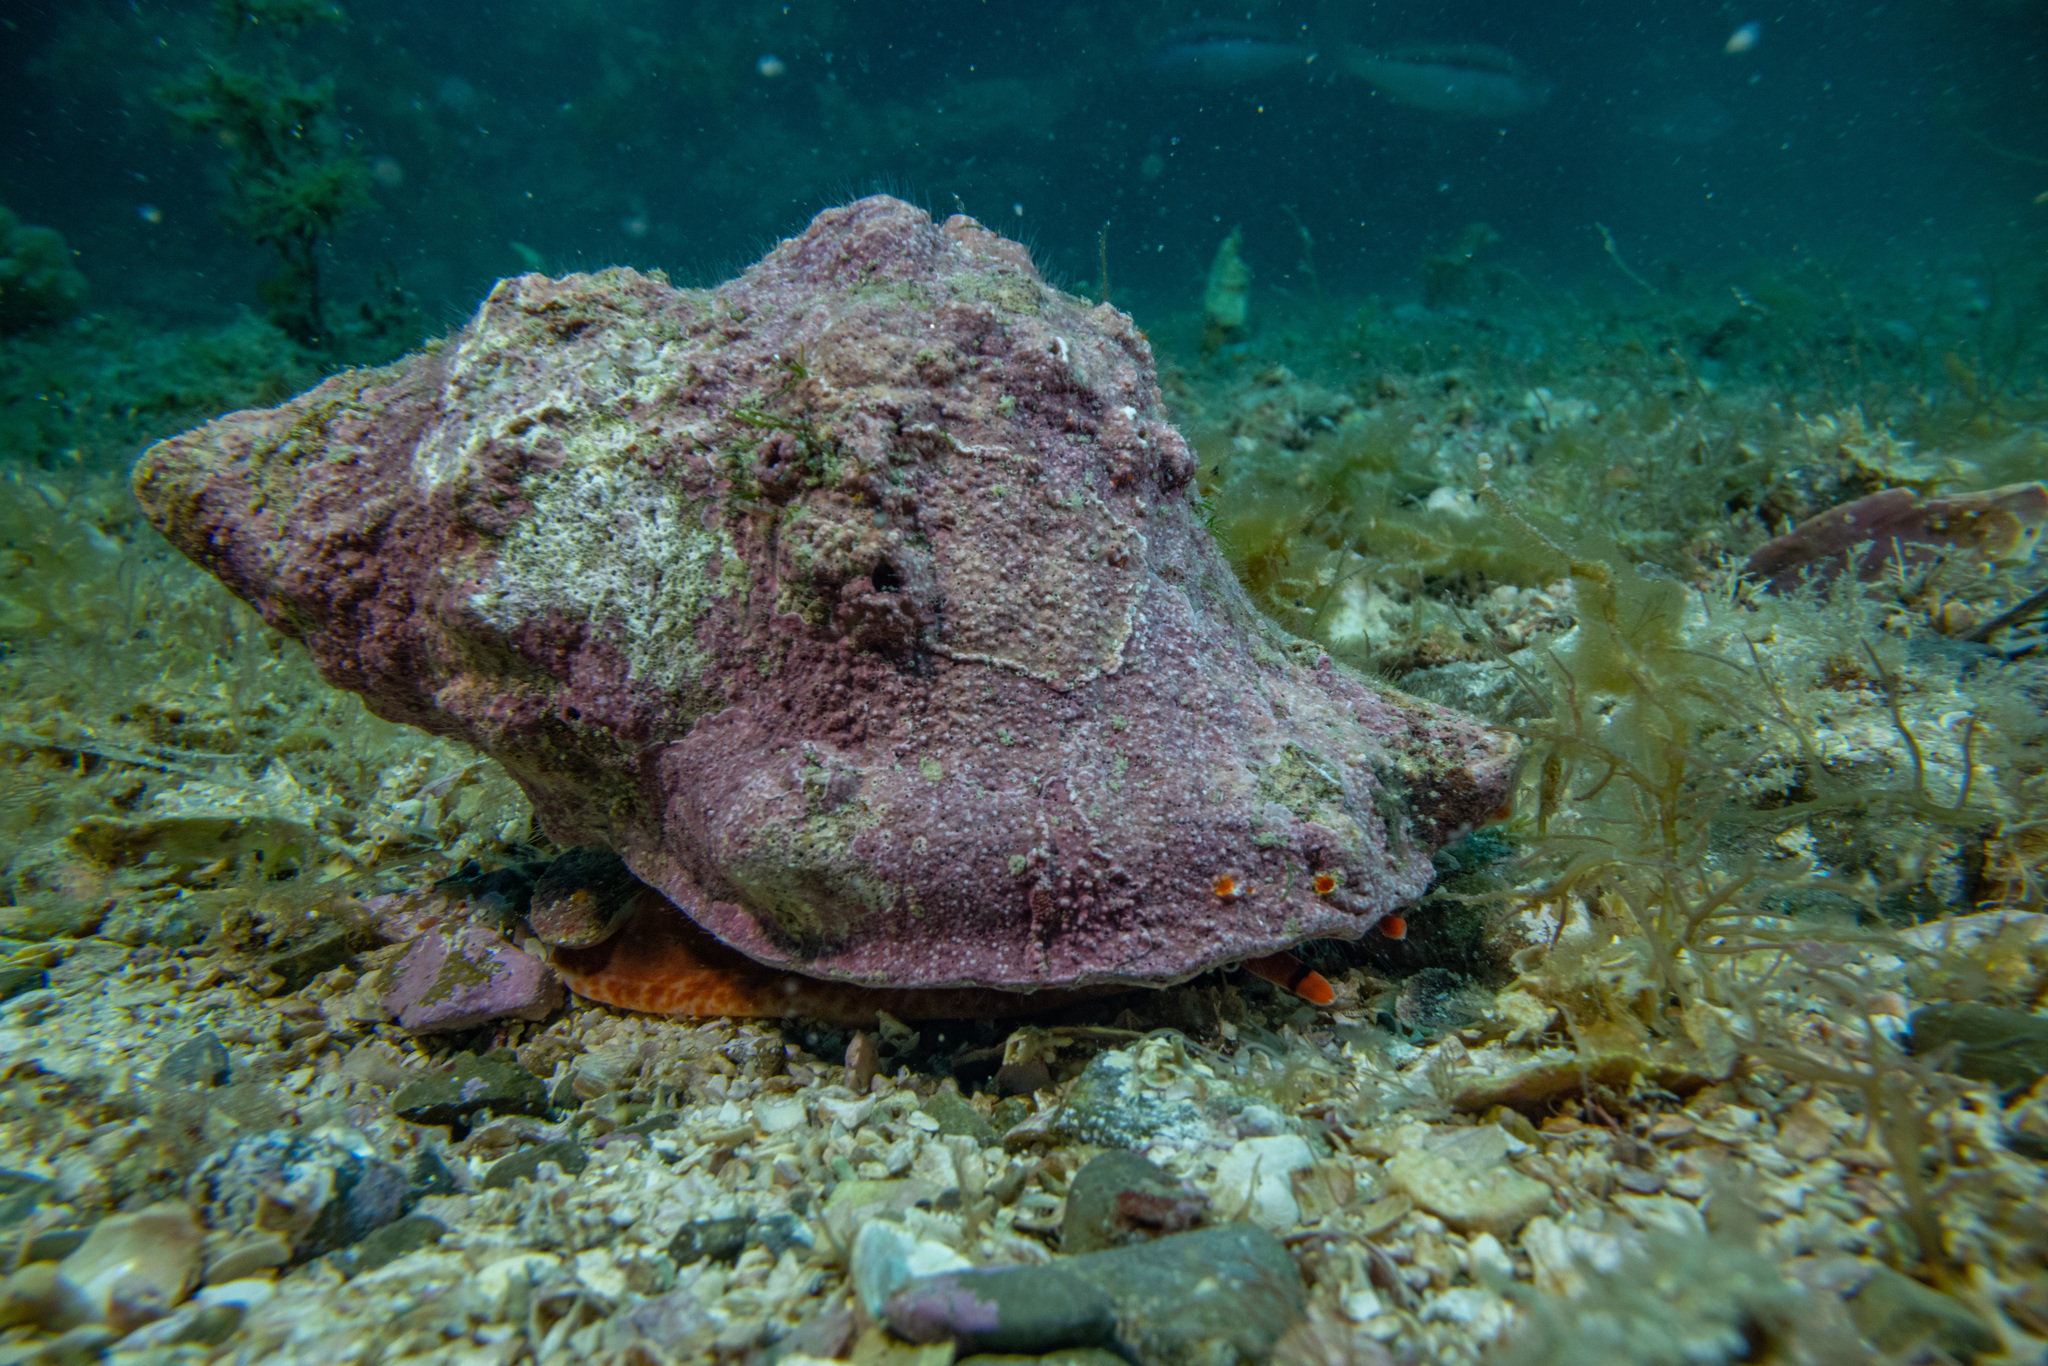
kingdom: Animalia
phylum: Mollusca
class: Gastropoda
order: Littorinimorpha
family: Charoniidae
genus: Charonia
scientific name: Charonia lampas
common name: Knobbed triton
